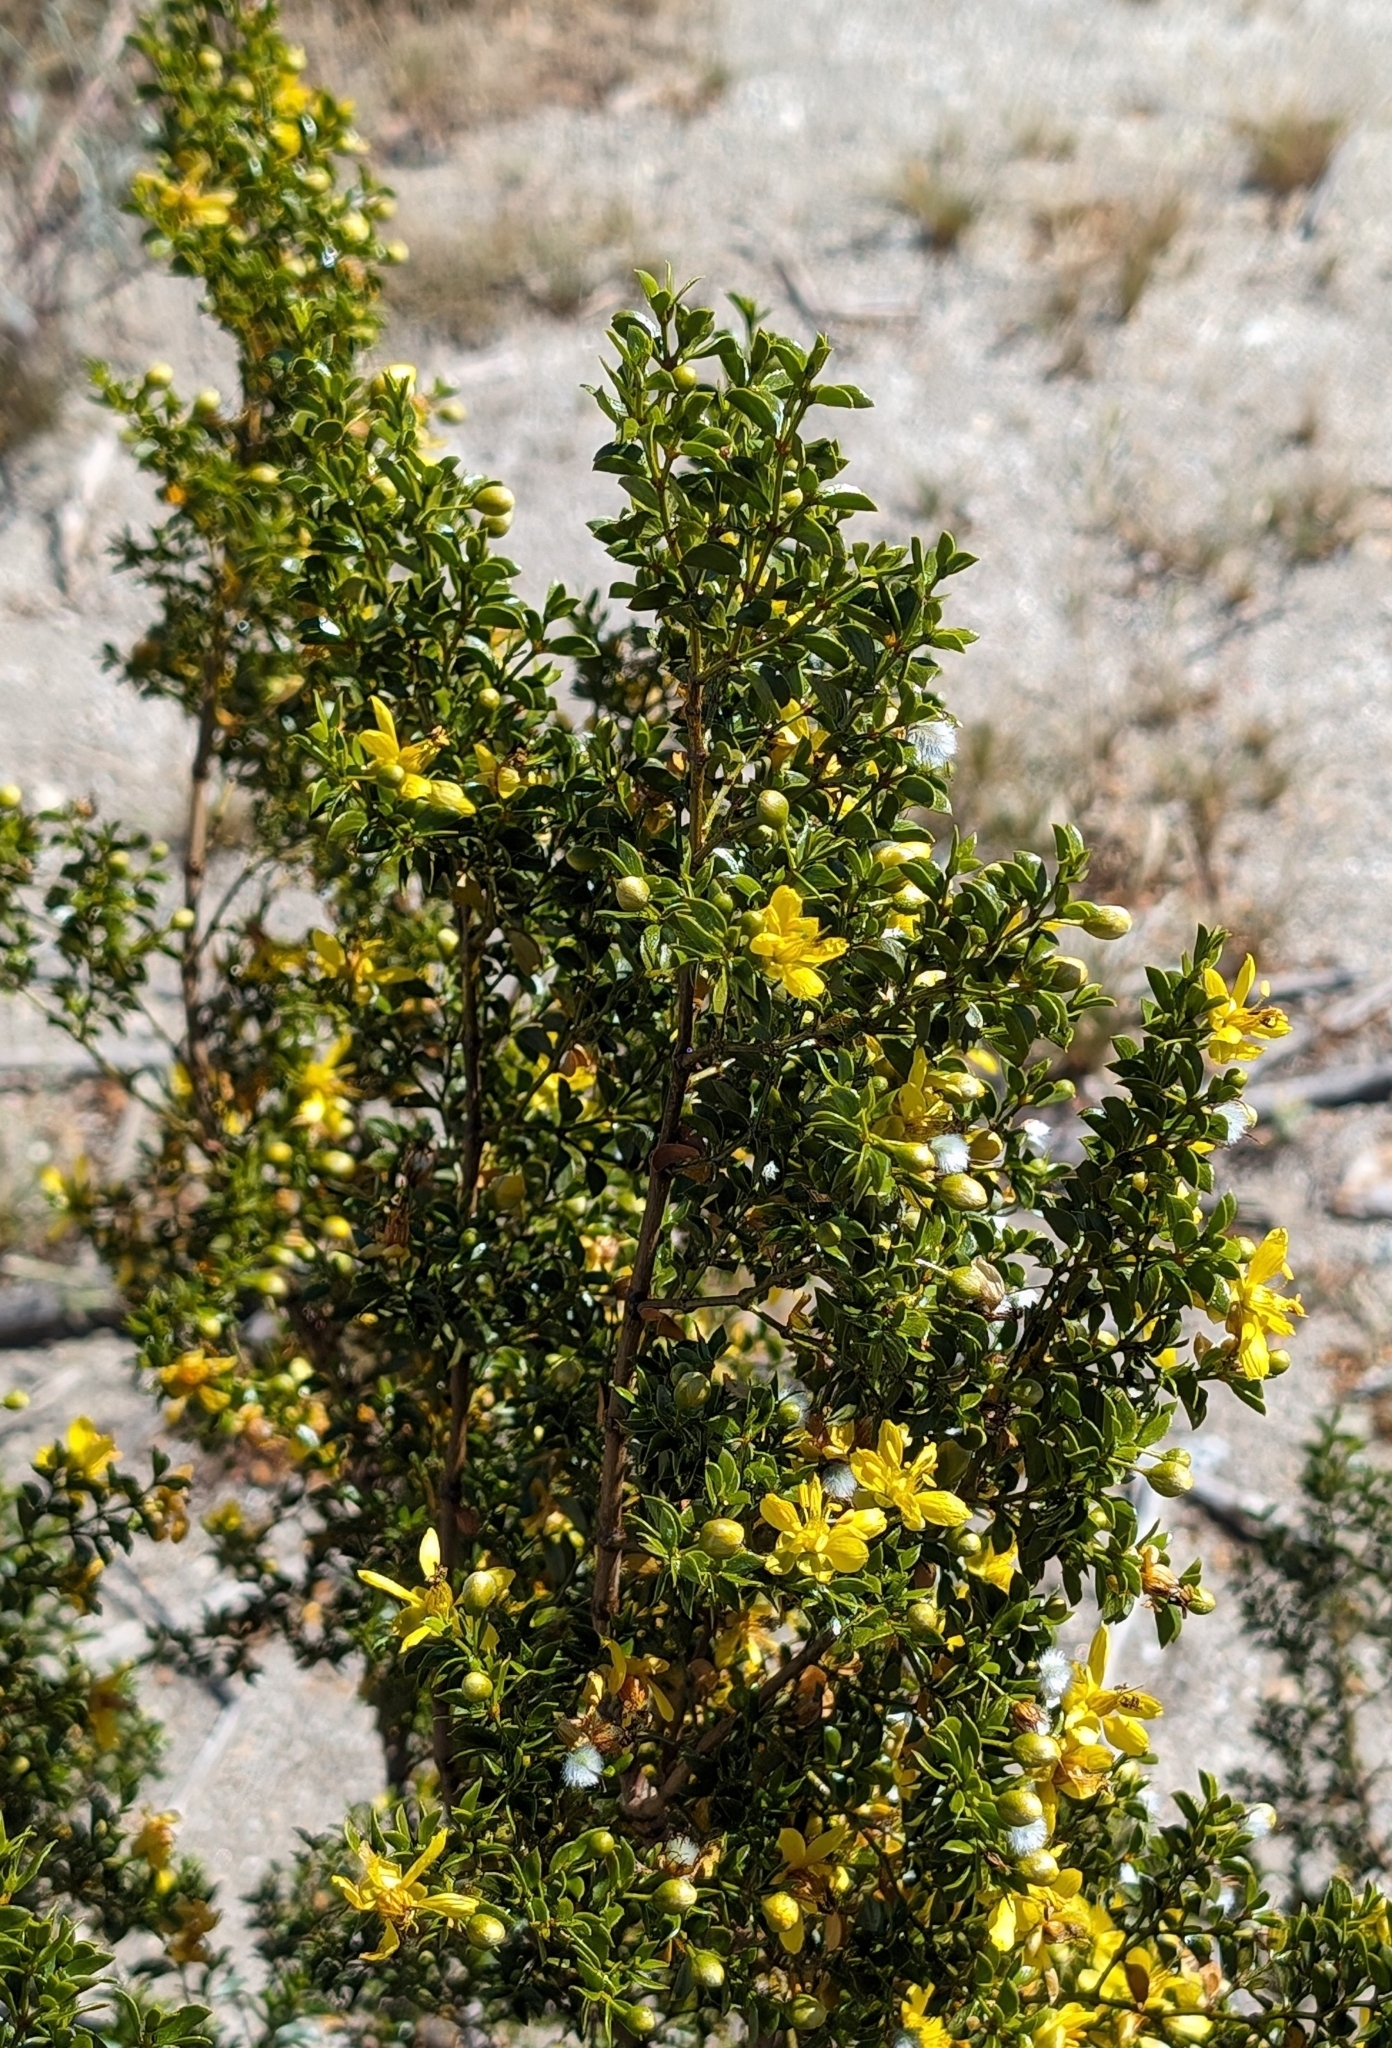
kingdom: Plantae
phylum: Tracheophyta
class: Magnoliopsida
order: Zygophyllales
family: Zygophyllaceae
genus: Larrea
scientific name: Larrea tridentata
